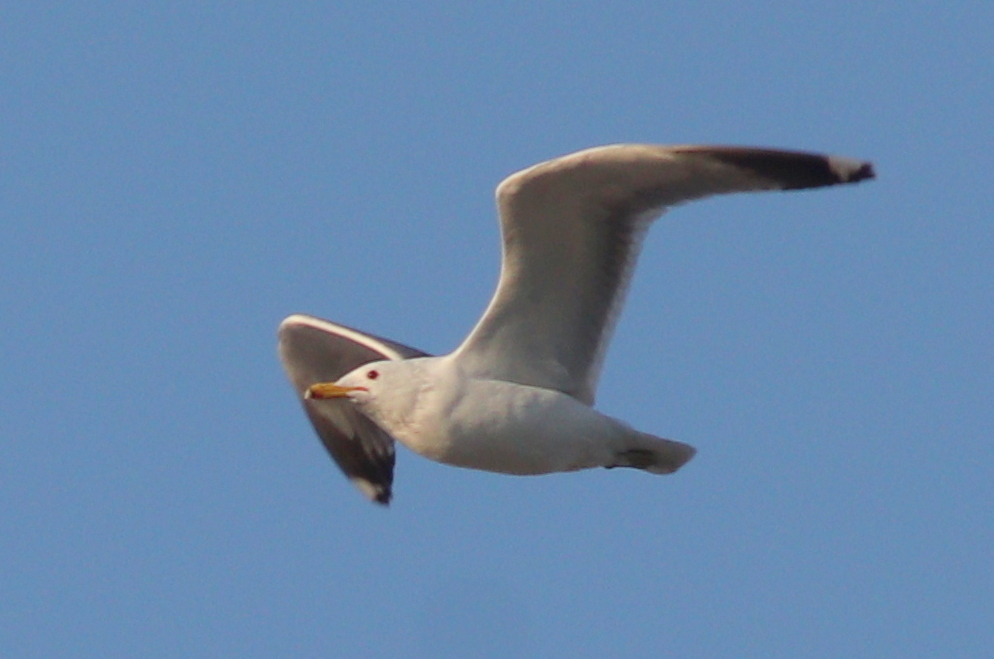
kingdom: Animalia
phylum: Chordata
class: Aves
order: Charadriiformes
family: Laridae
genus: Larus
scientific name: Larus californicus
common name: California gull
